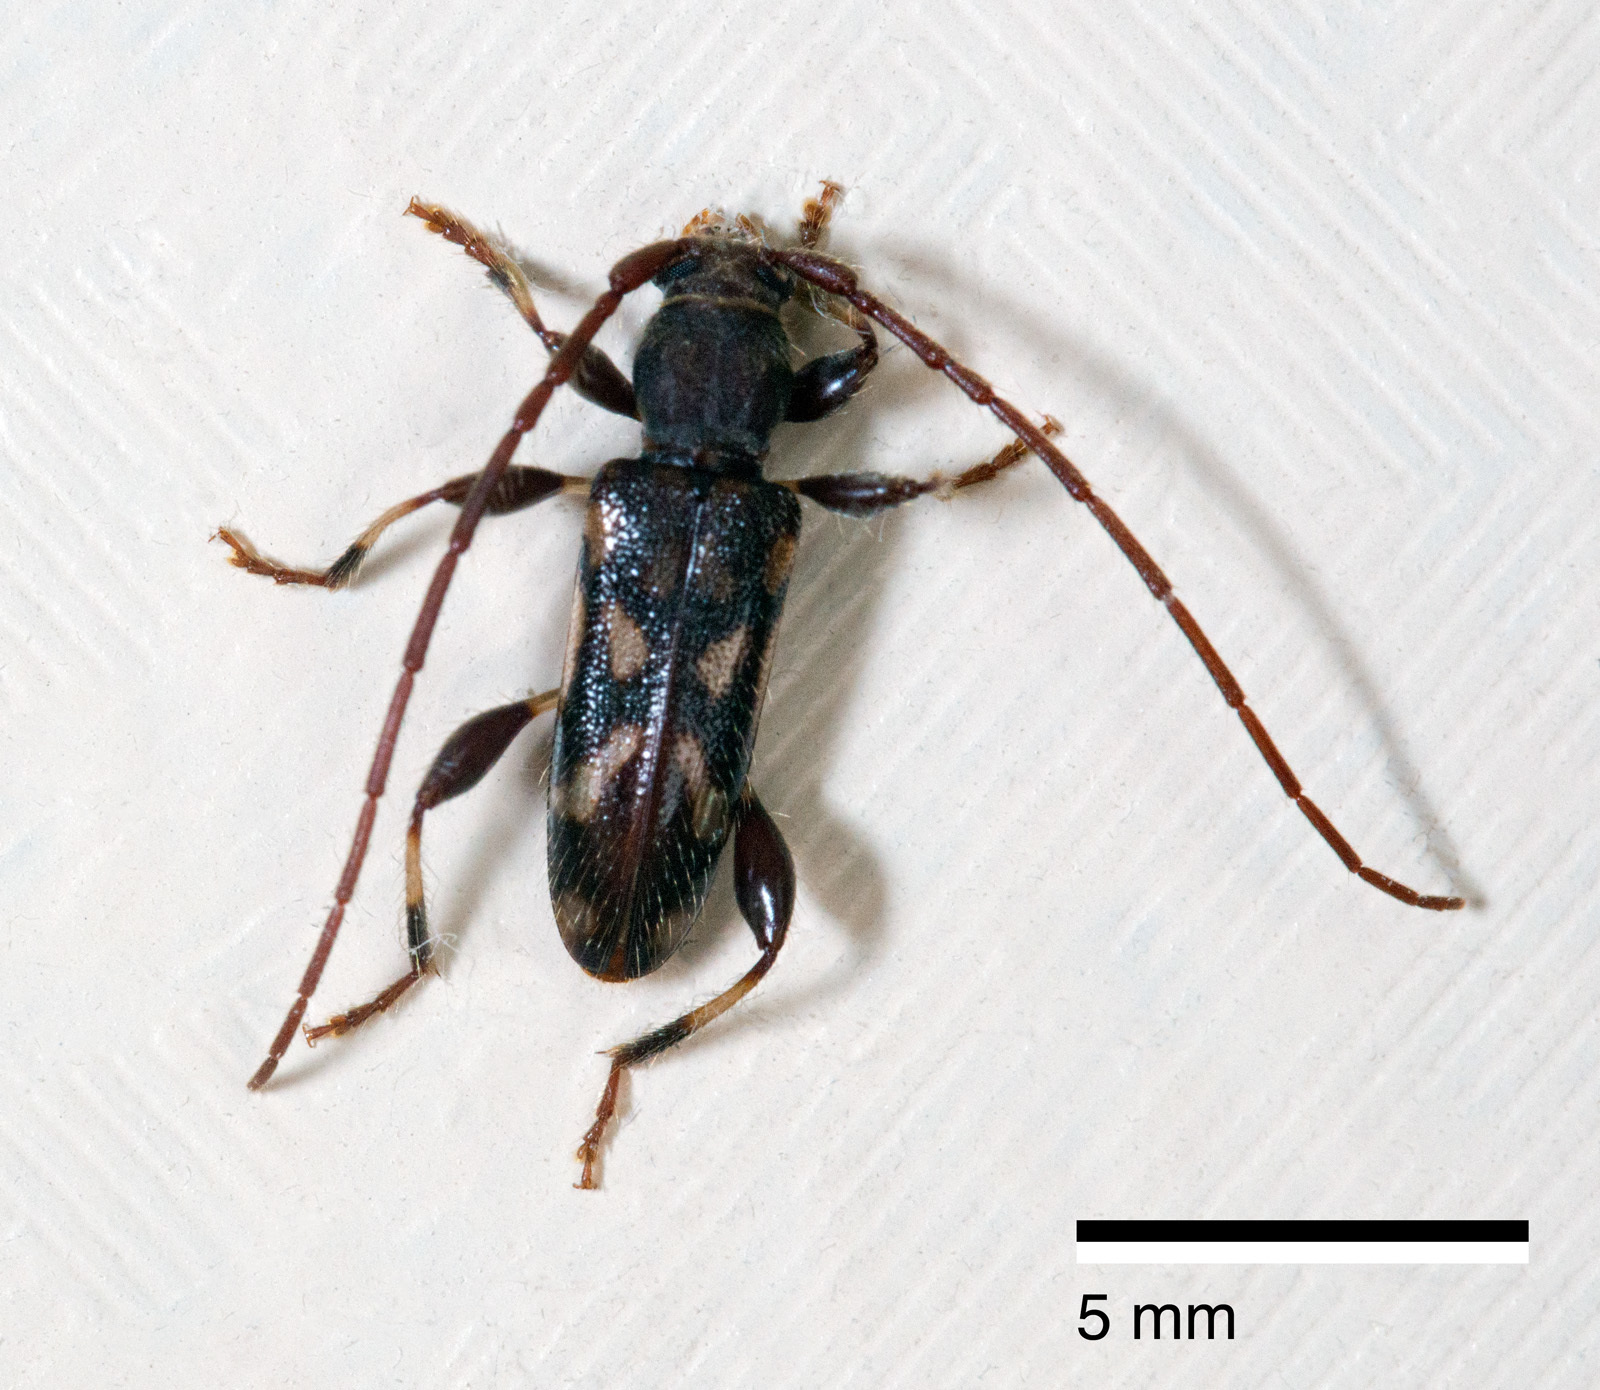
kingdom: Animalia
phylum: Arthropoda
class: Insecta
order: Coleoptera
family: Cerambycidae
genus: Bethelium
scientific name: Bethelium signiferum
